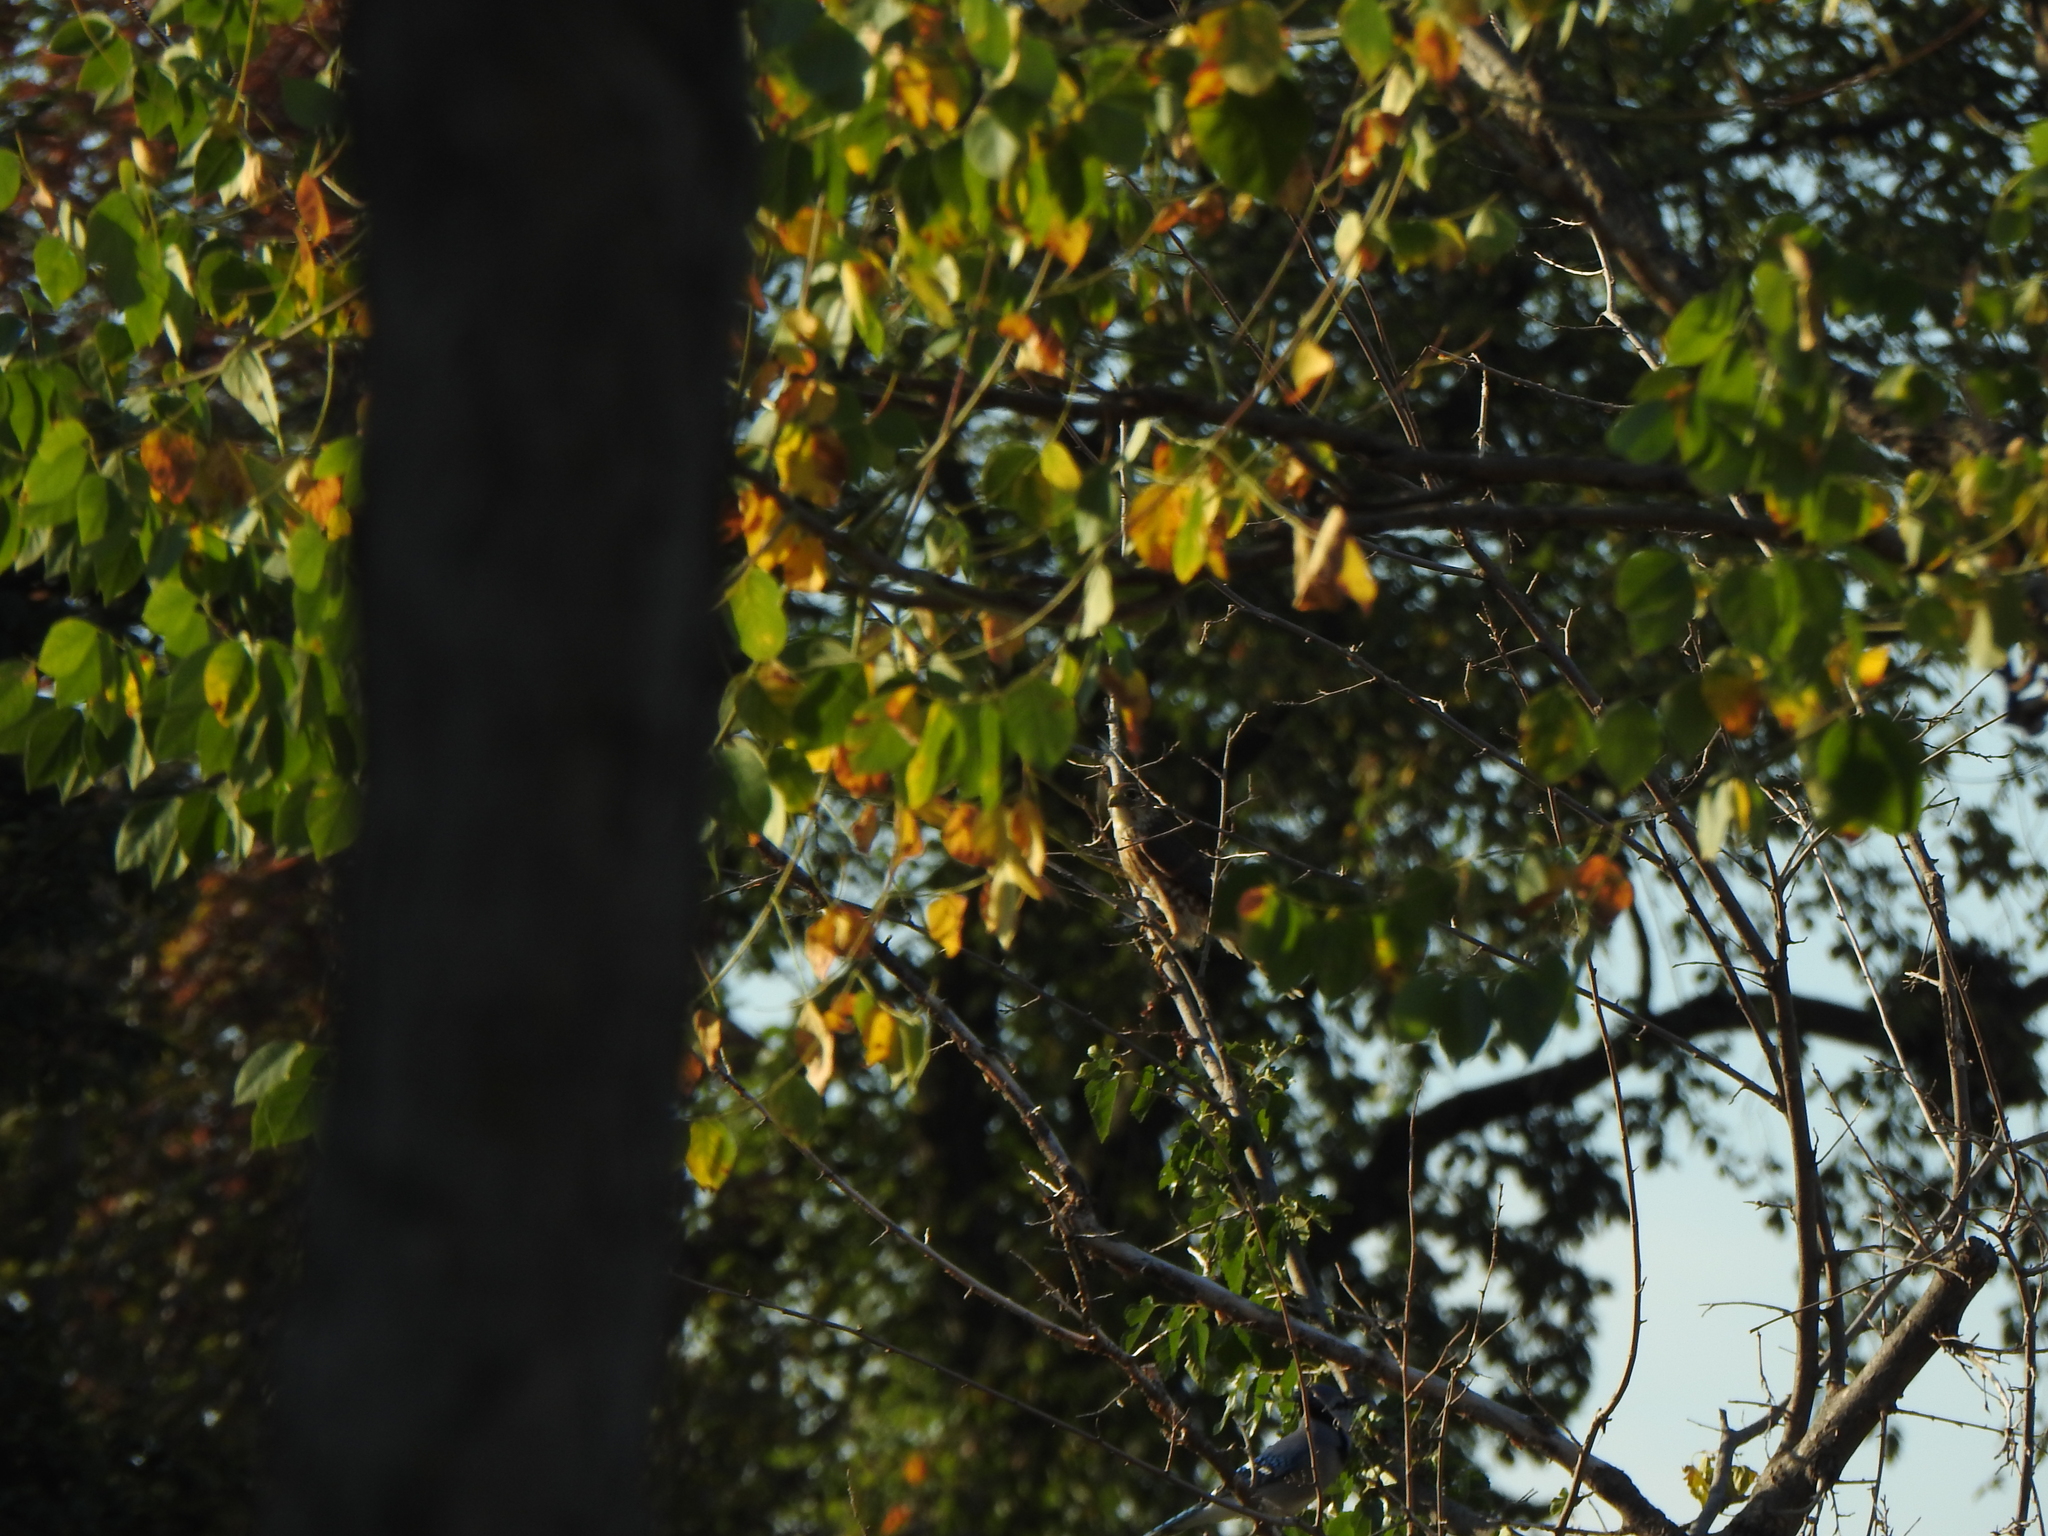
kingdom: Animalia
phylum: Chordata
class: Aves
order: Falconiformes
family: Falconidae
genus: Falco
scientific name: Falco columbarius
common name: Merlin
